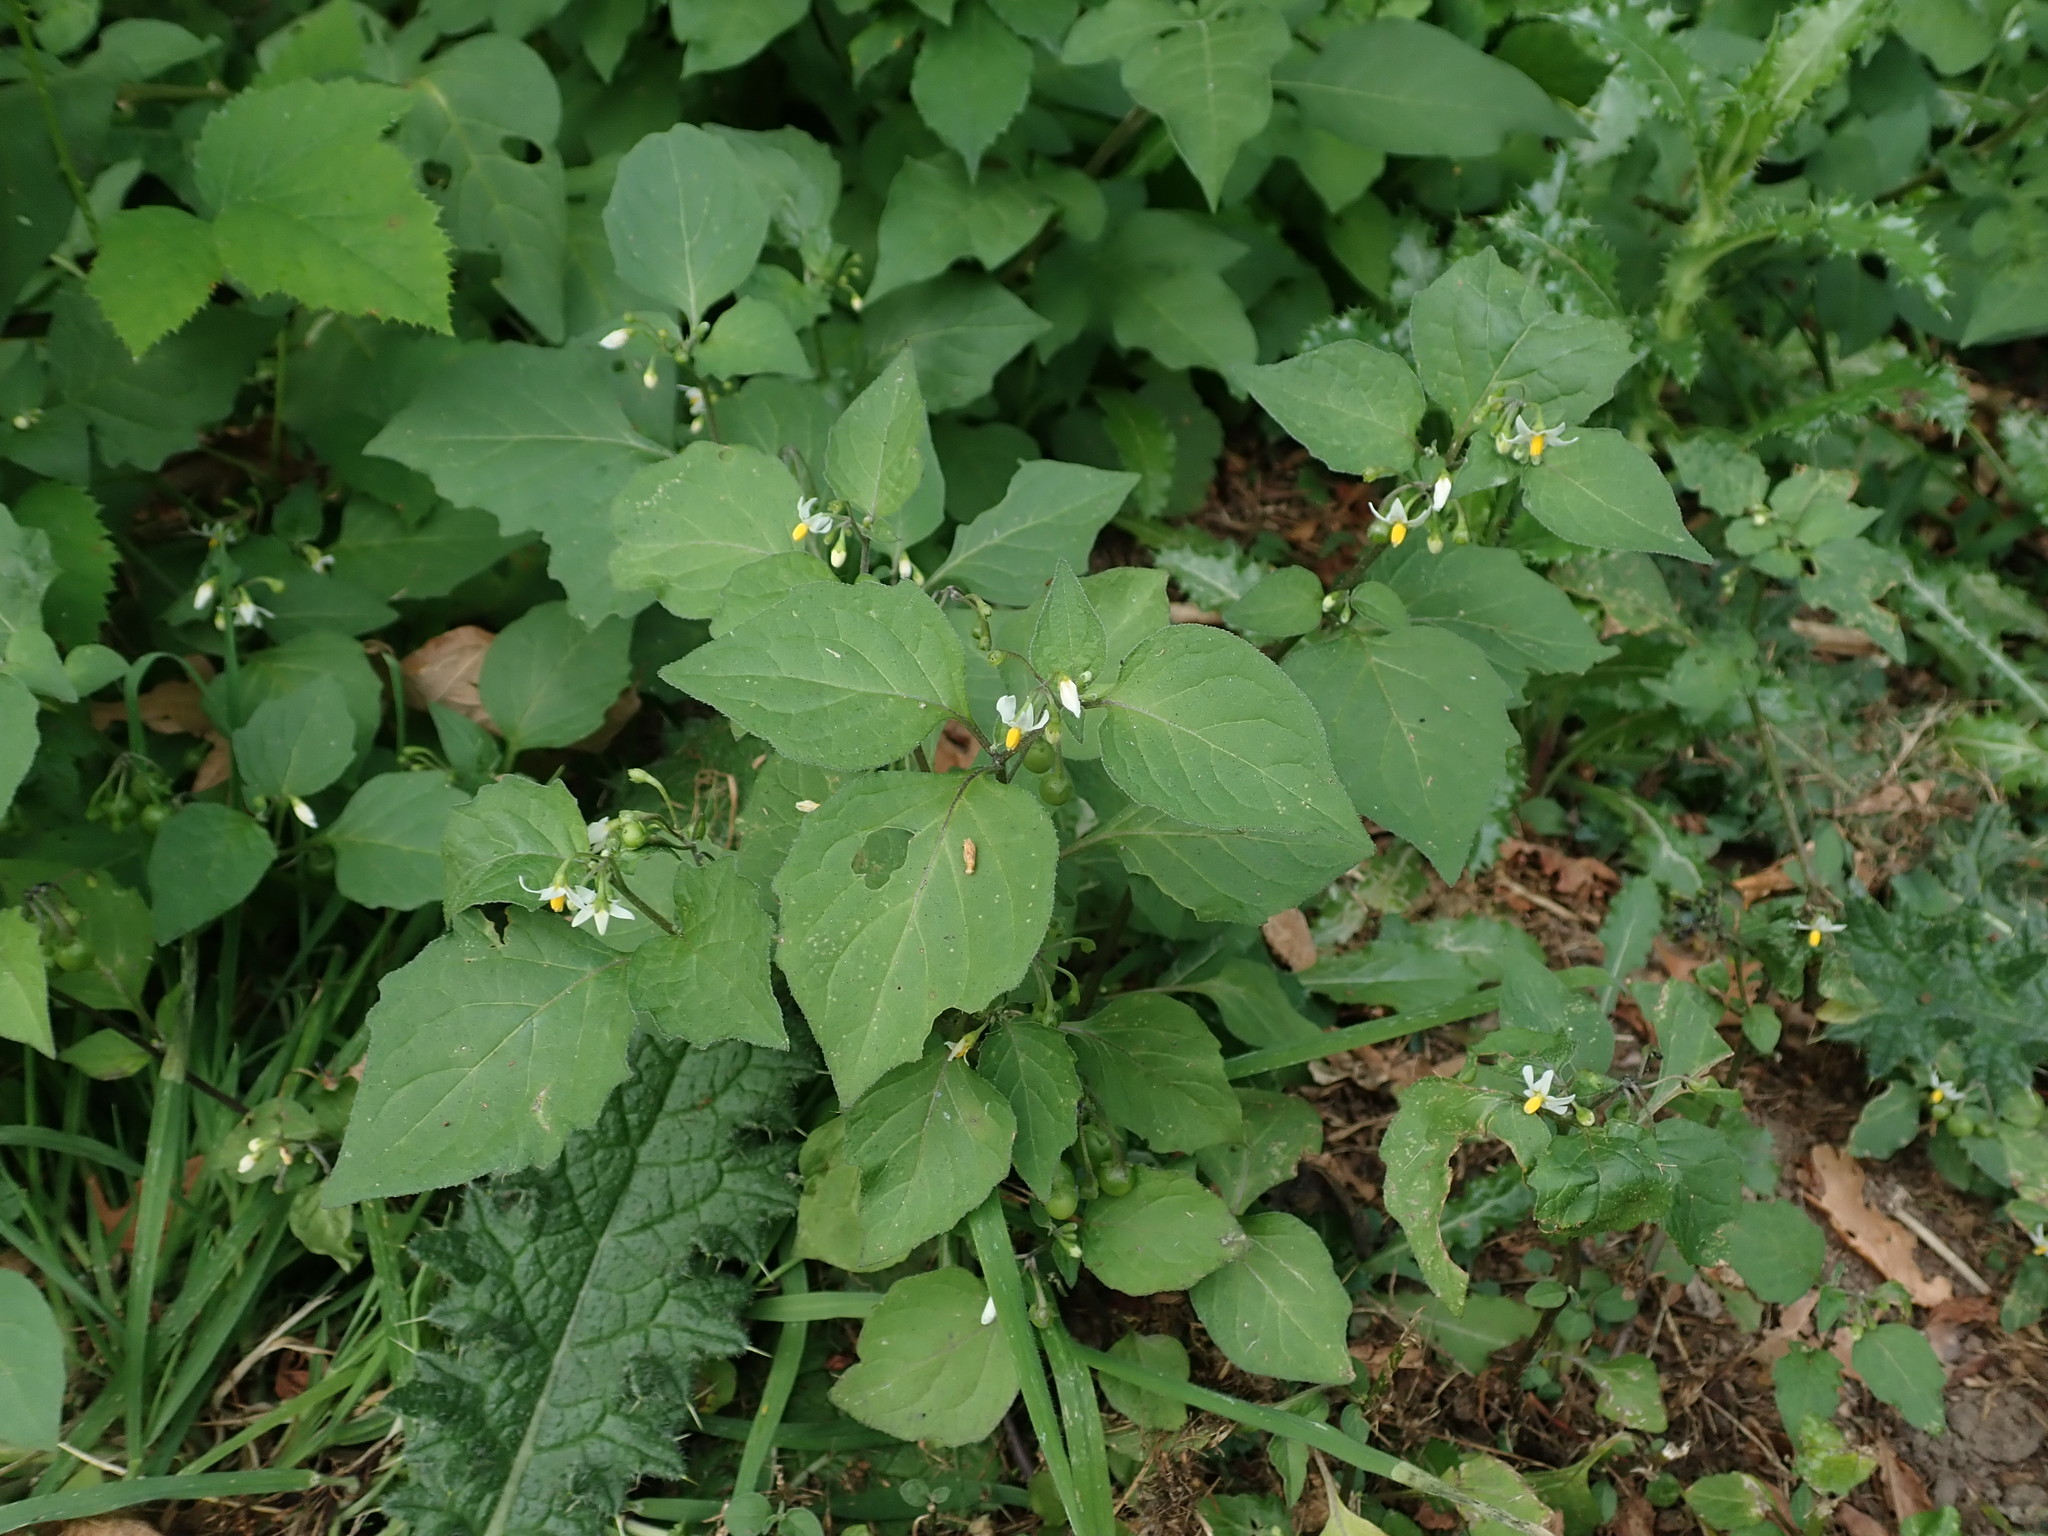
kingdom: Plantae
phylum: Tracheophyta
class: Magnoliopsida
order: Solanales
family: Solanaceae
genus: Solanum
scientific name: Solanum nigrum
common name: Black nightshade
